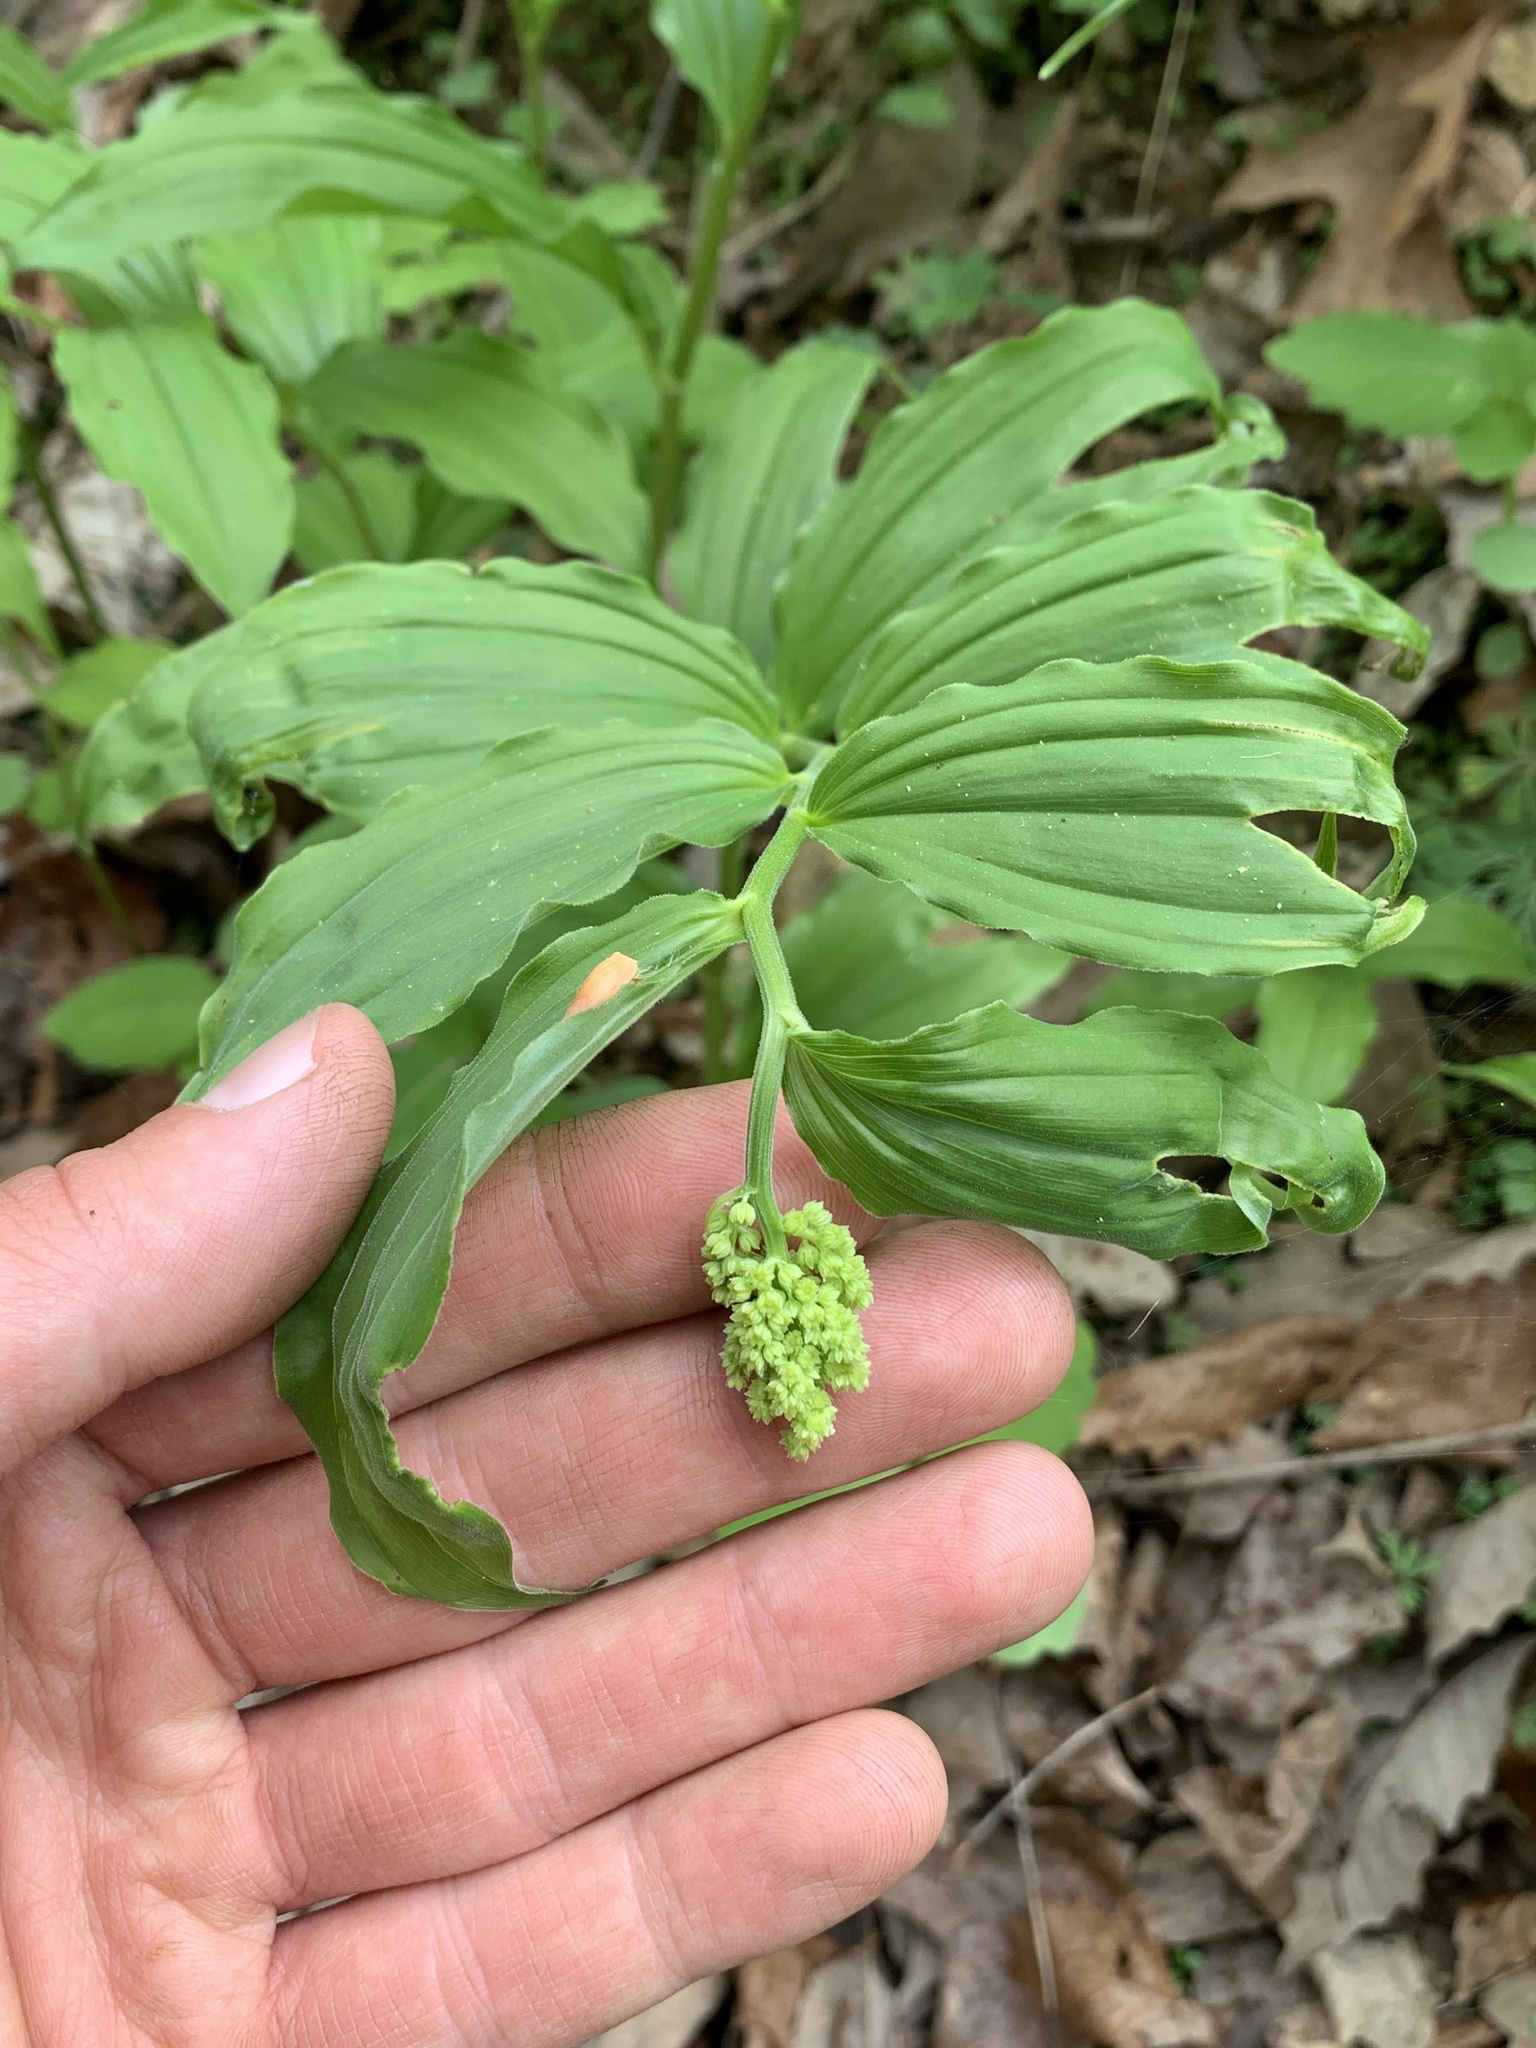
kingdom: Plantae
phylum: Tracheophyta
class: Liliopsida
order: Asparagales
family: Asparagaceae
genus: Maianthemum
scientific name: Maianthemum racemosum
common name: False spikenard
